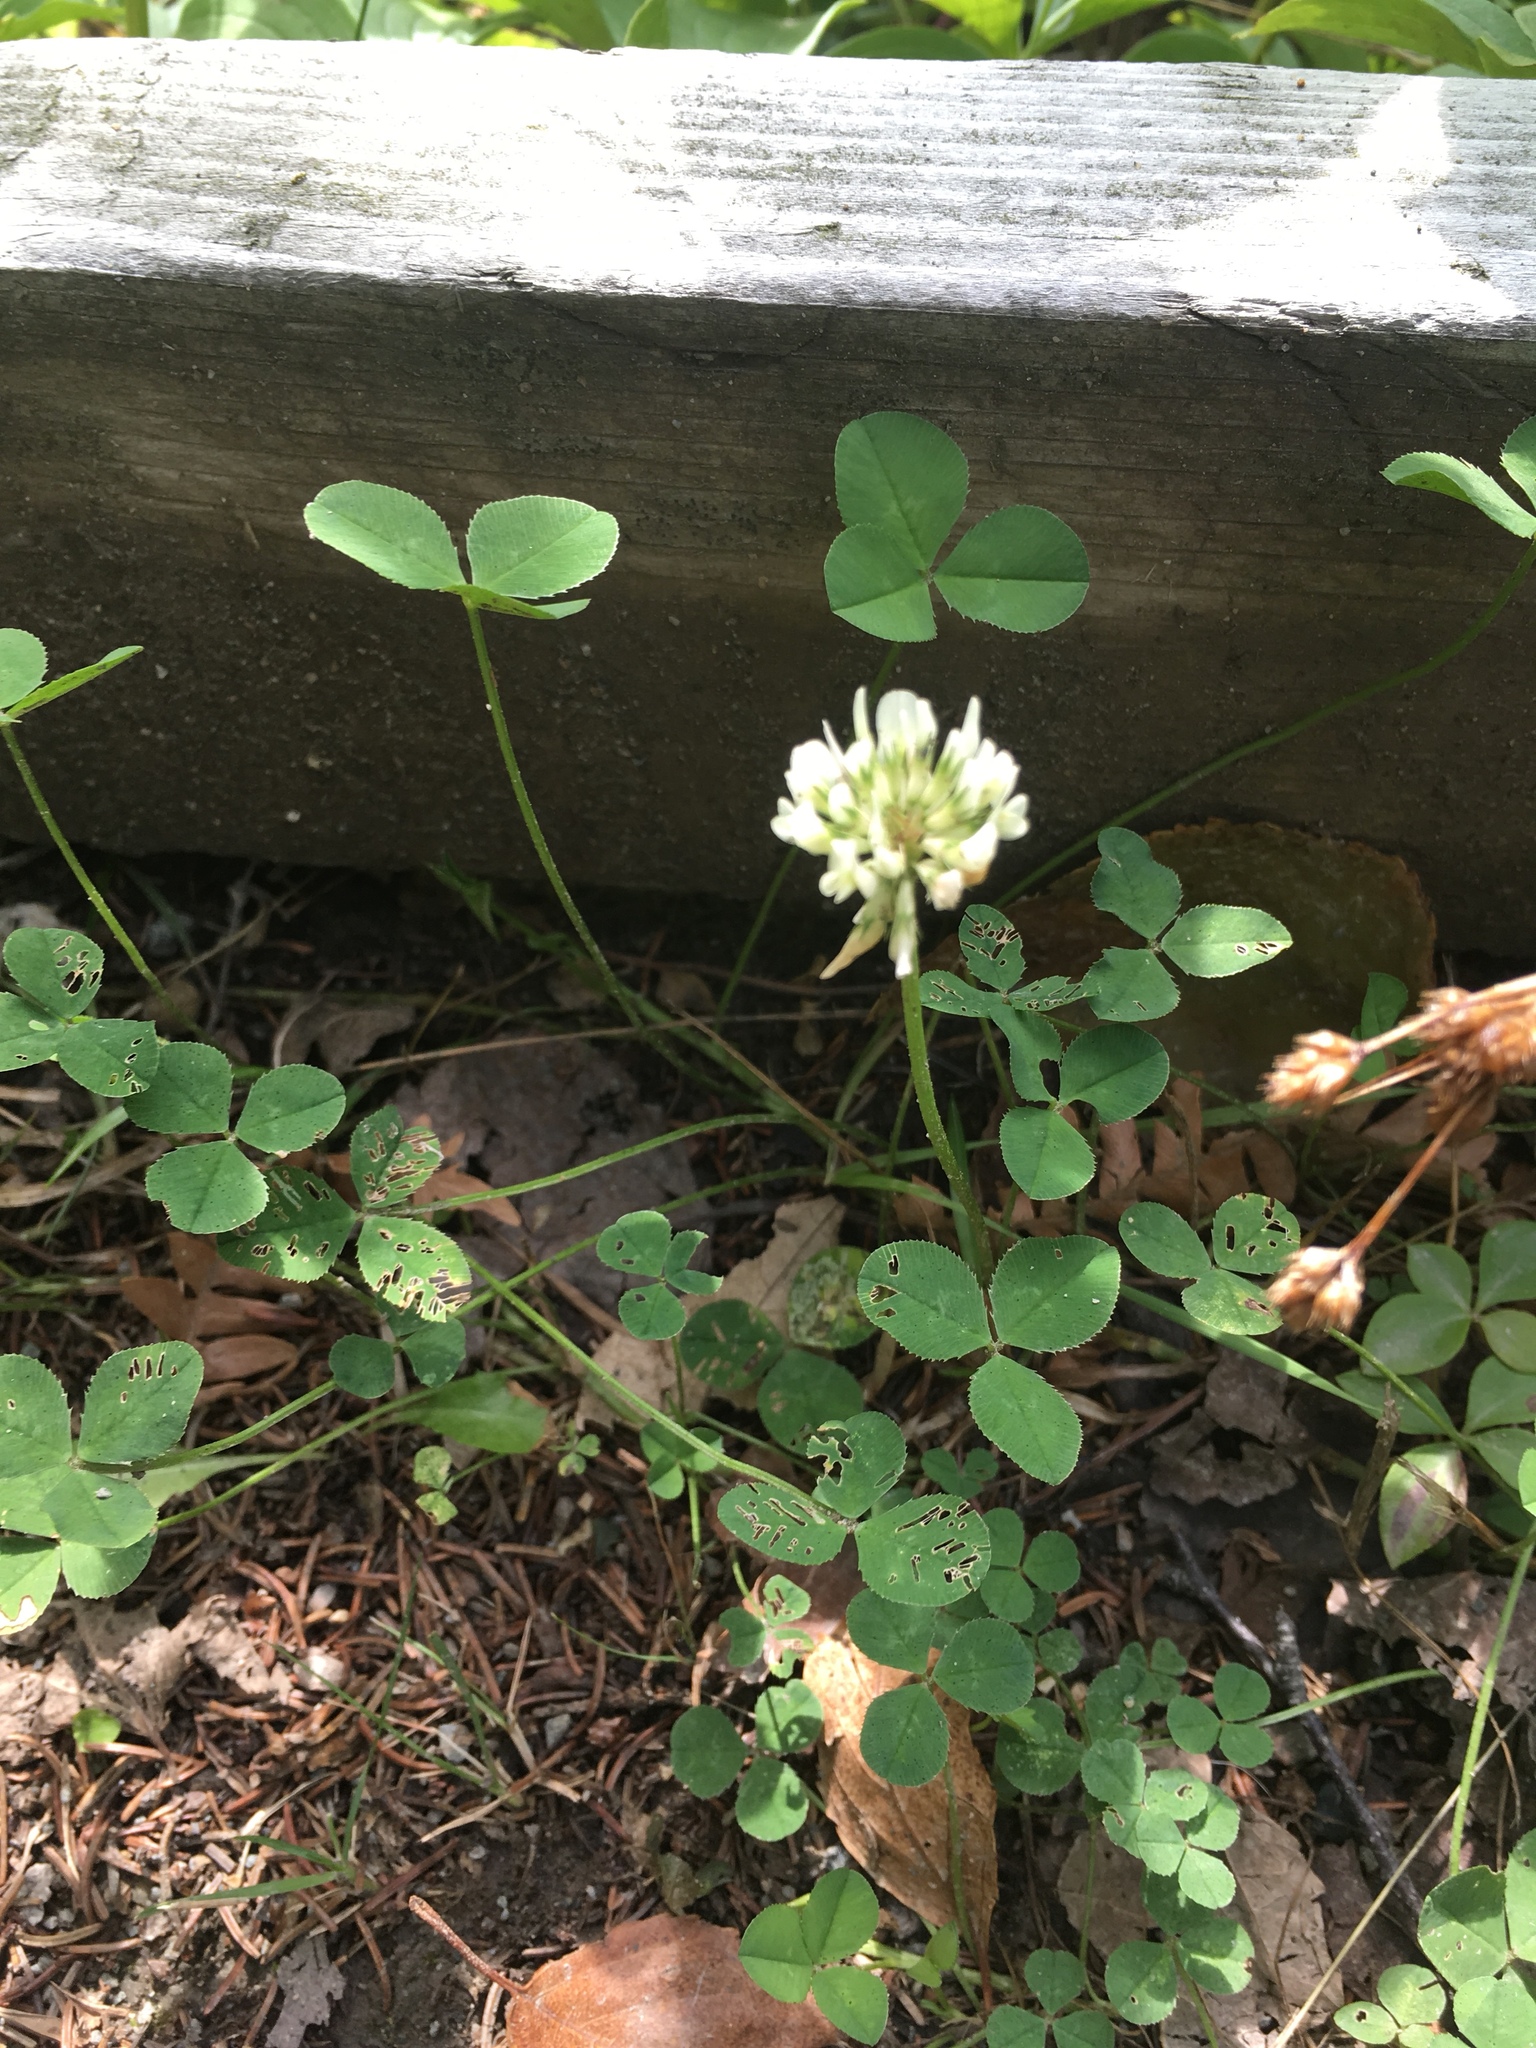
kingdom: Plantae
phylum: Tracheophyta
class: Magnoliopsida
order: Fabales
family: Fabaceae
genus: Trifolium
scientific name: Trifolium repens
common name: White clover
